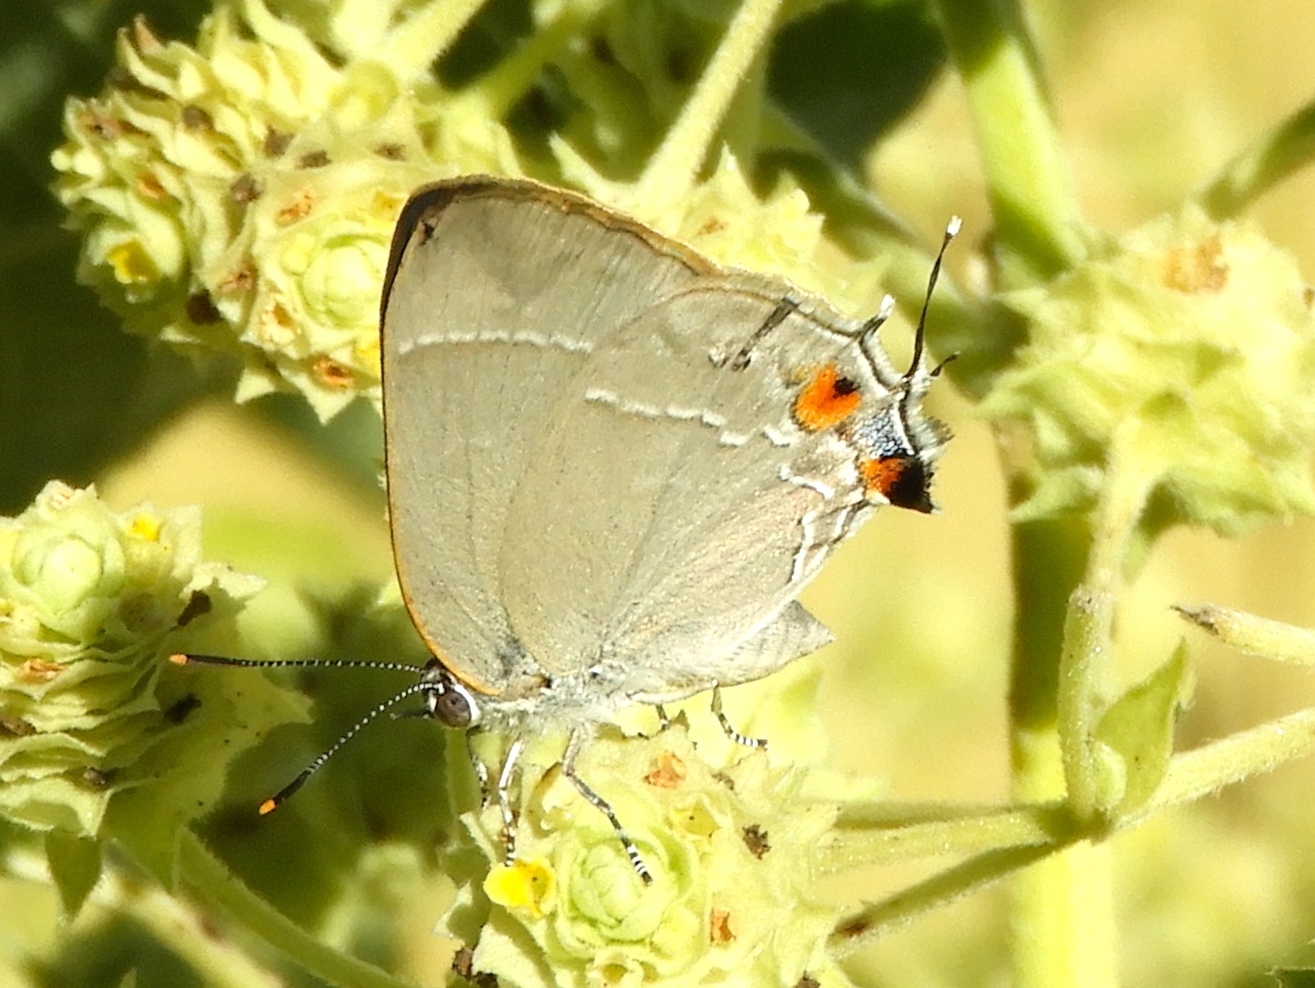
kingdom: Animalia
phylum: Arthropoda
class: Insecta
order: Lepidoptera
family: Lycaenidae
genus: Thecla
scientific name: Thecla marius
